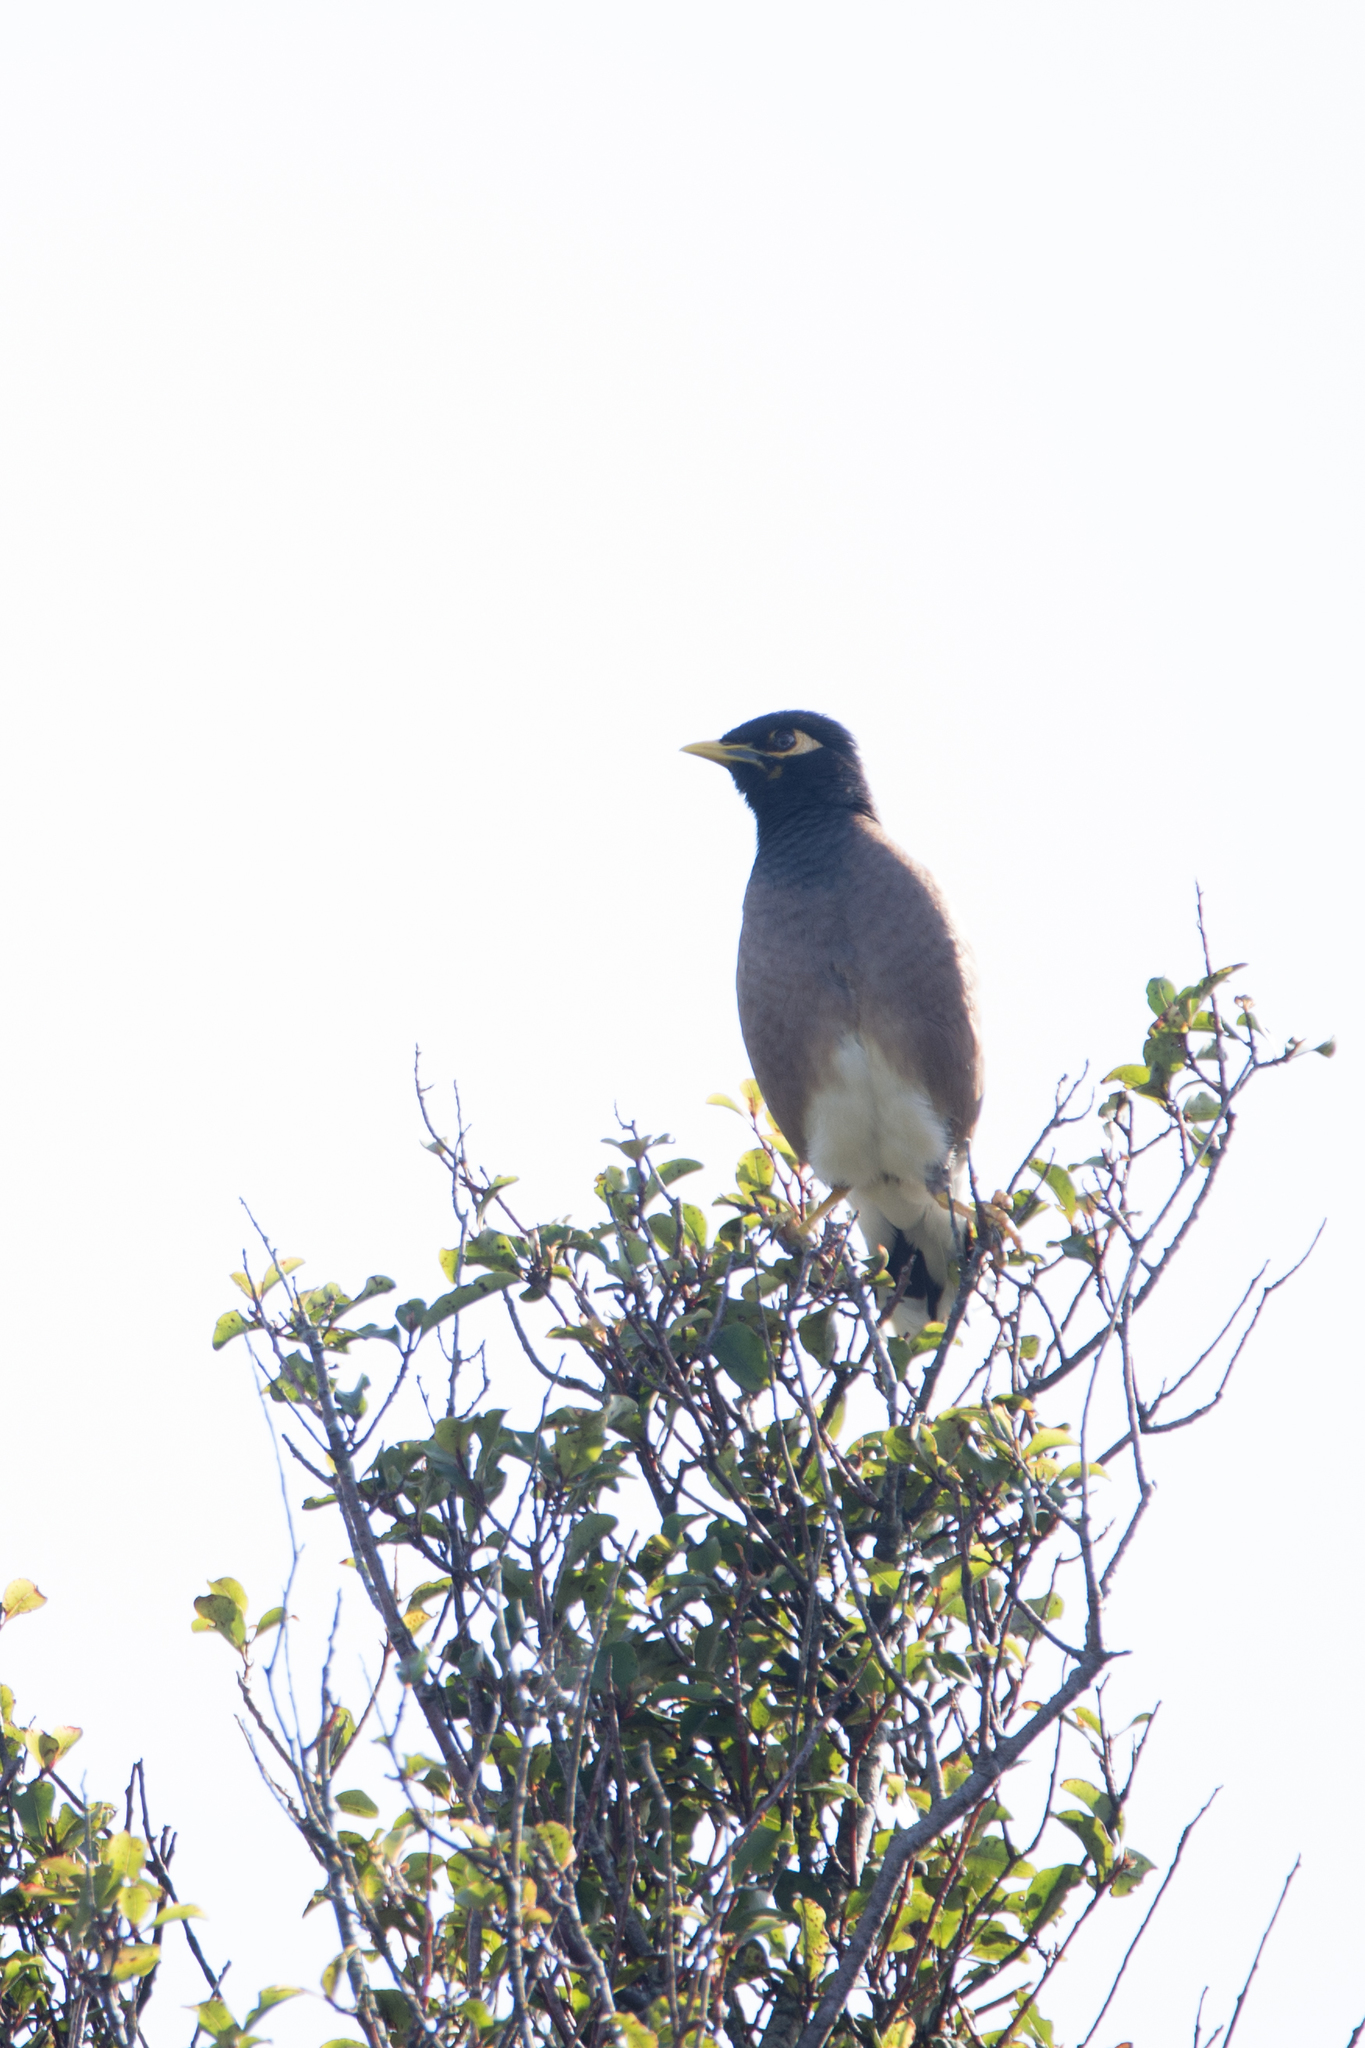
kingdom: Animalia
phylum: Chordata
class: Aves
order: Passeriformes
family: Sturnidae
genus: Acridotheres
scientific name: Acridotheres tristis
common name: Common myna
